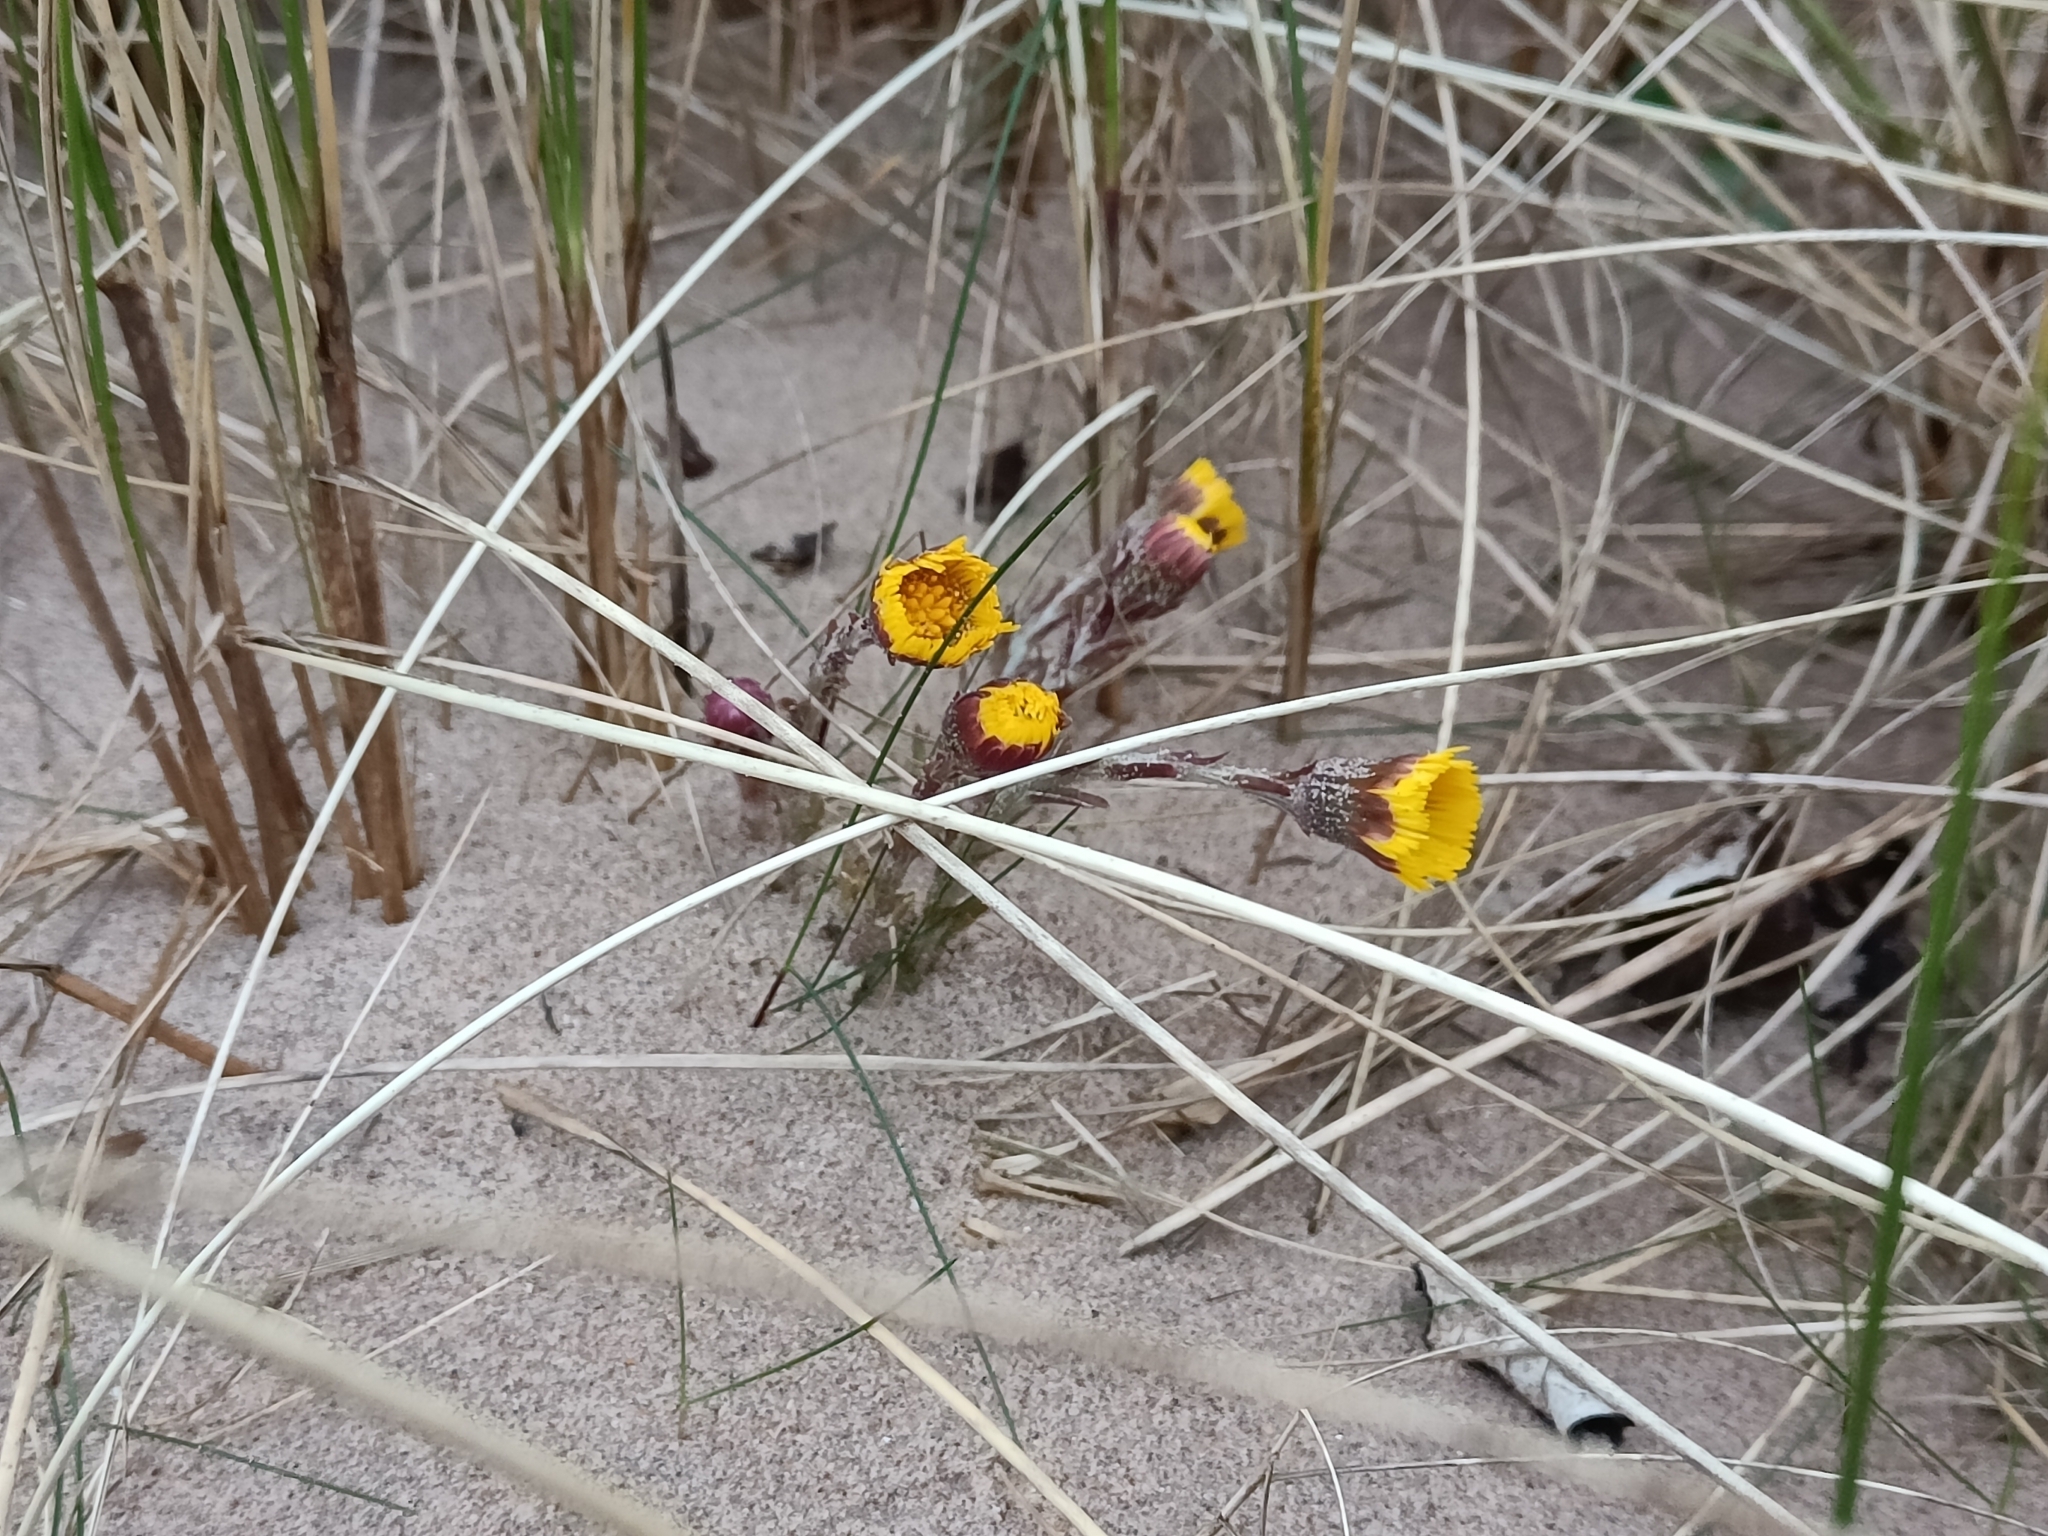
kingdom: Plantae
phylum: Tracheophyta
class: Magnoliopsida
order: Asterales
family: Asteraceae
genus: Tussilago
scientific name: Tussilago farfara
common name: Coltsfoot
